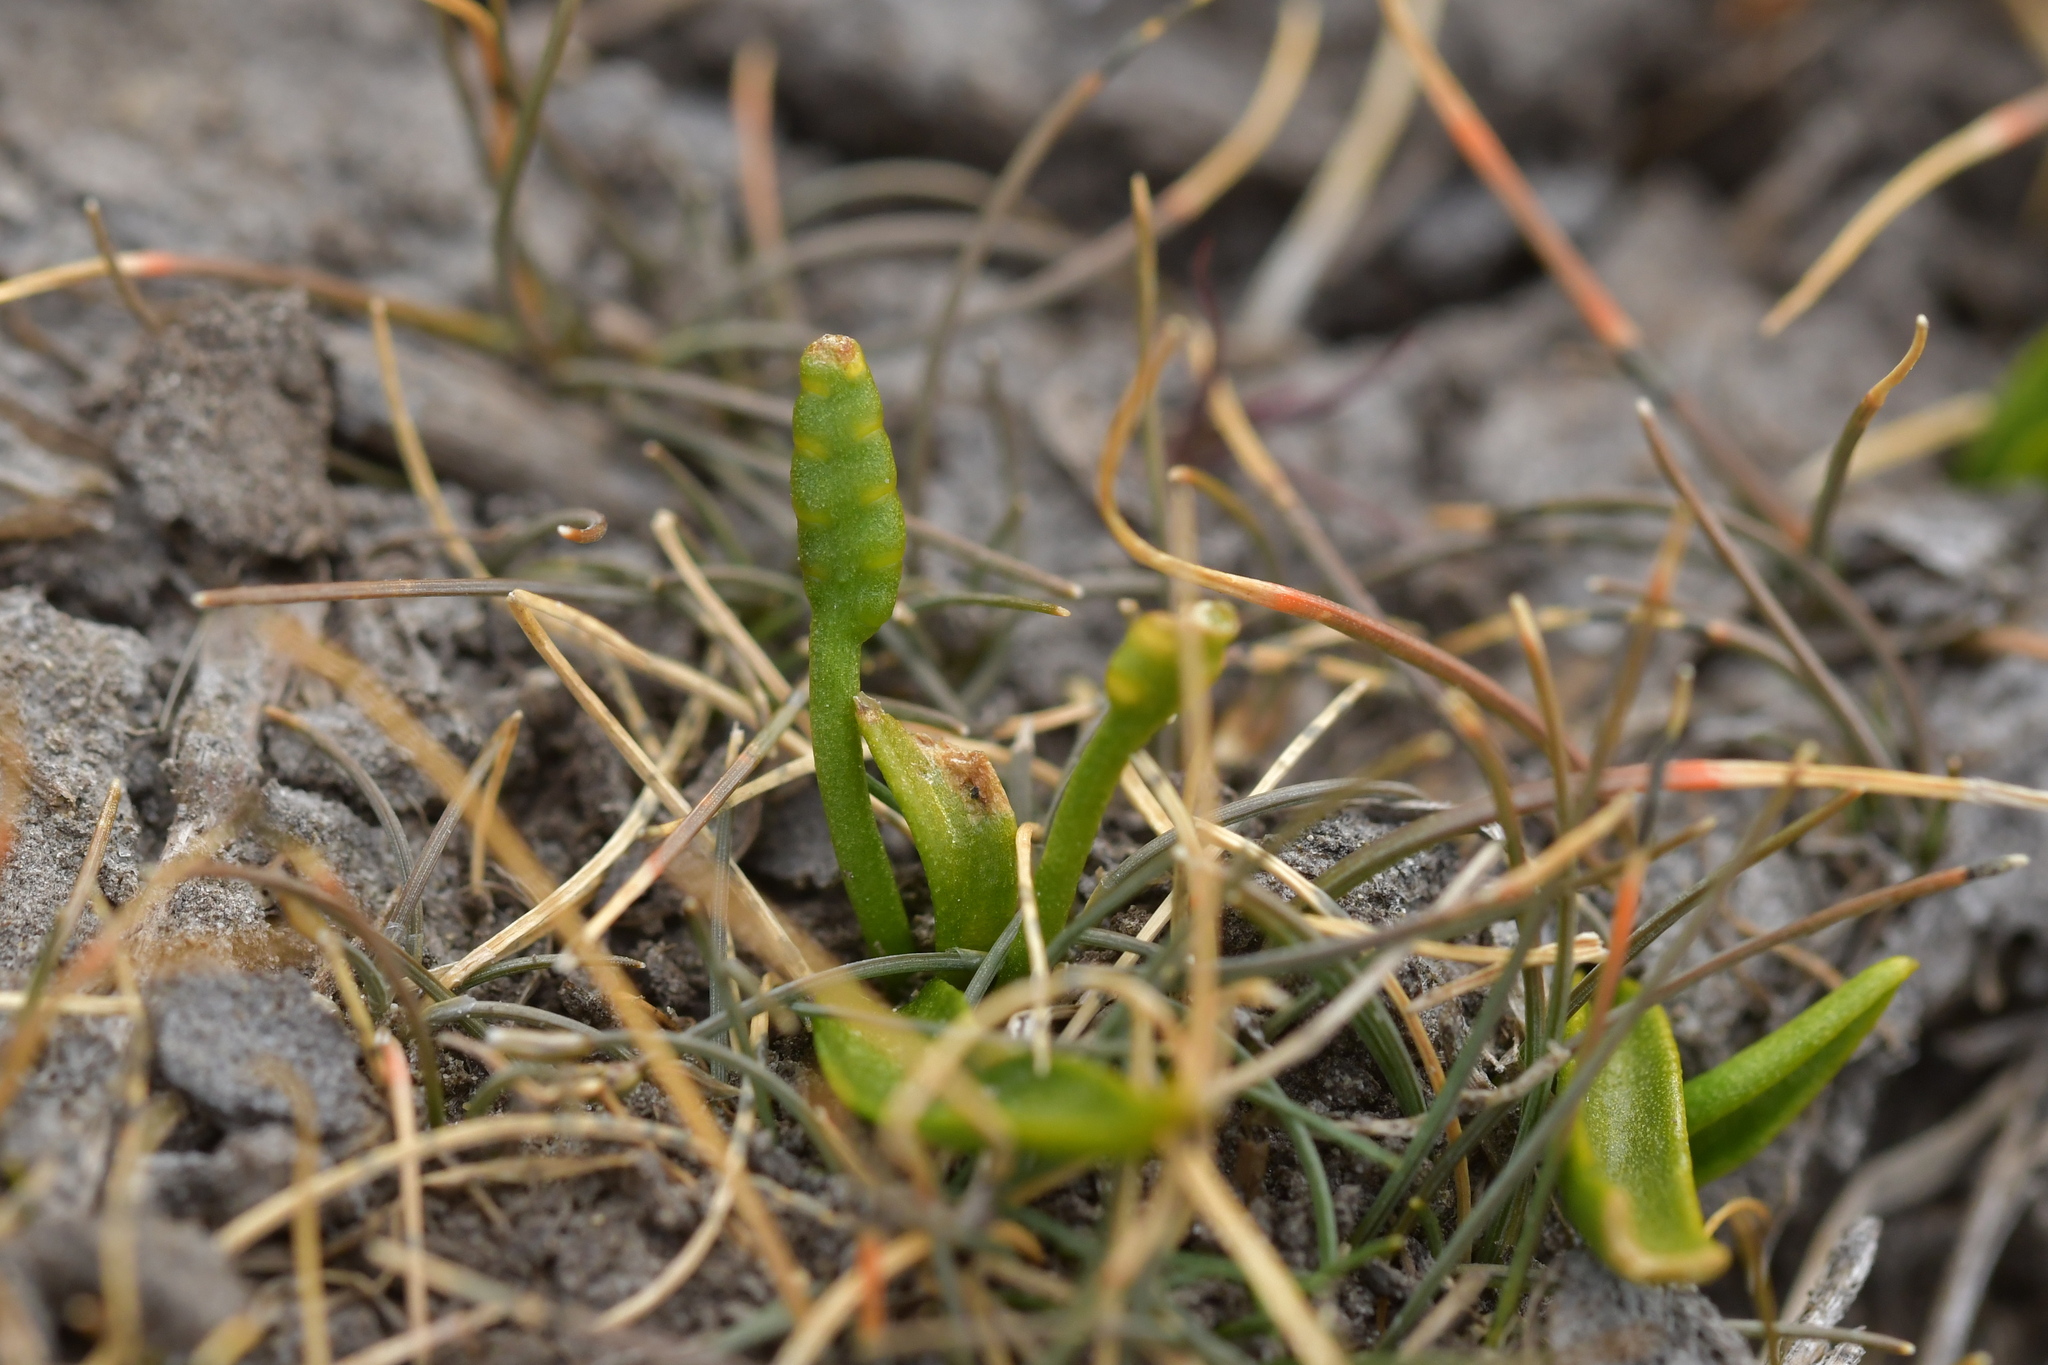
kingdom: Plantae
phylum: Tracheophyta
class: Polypodiopsida
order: Ophioglossales
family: Ophioglossaceae
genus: Ophioglossum
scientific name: Ophioglossum coriaceum
